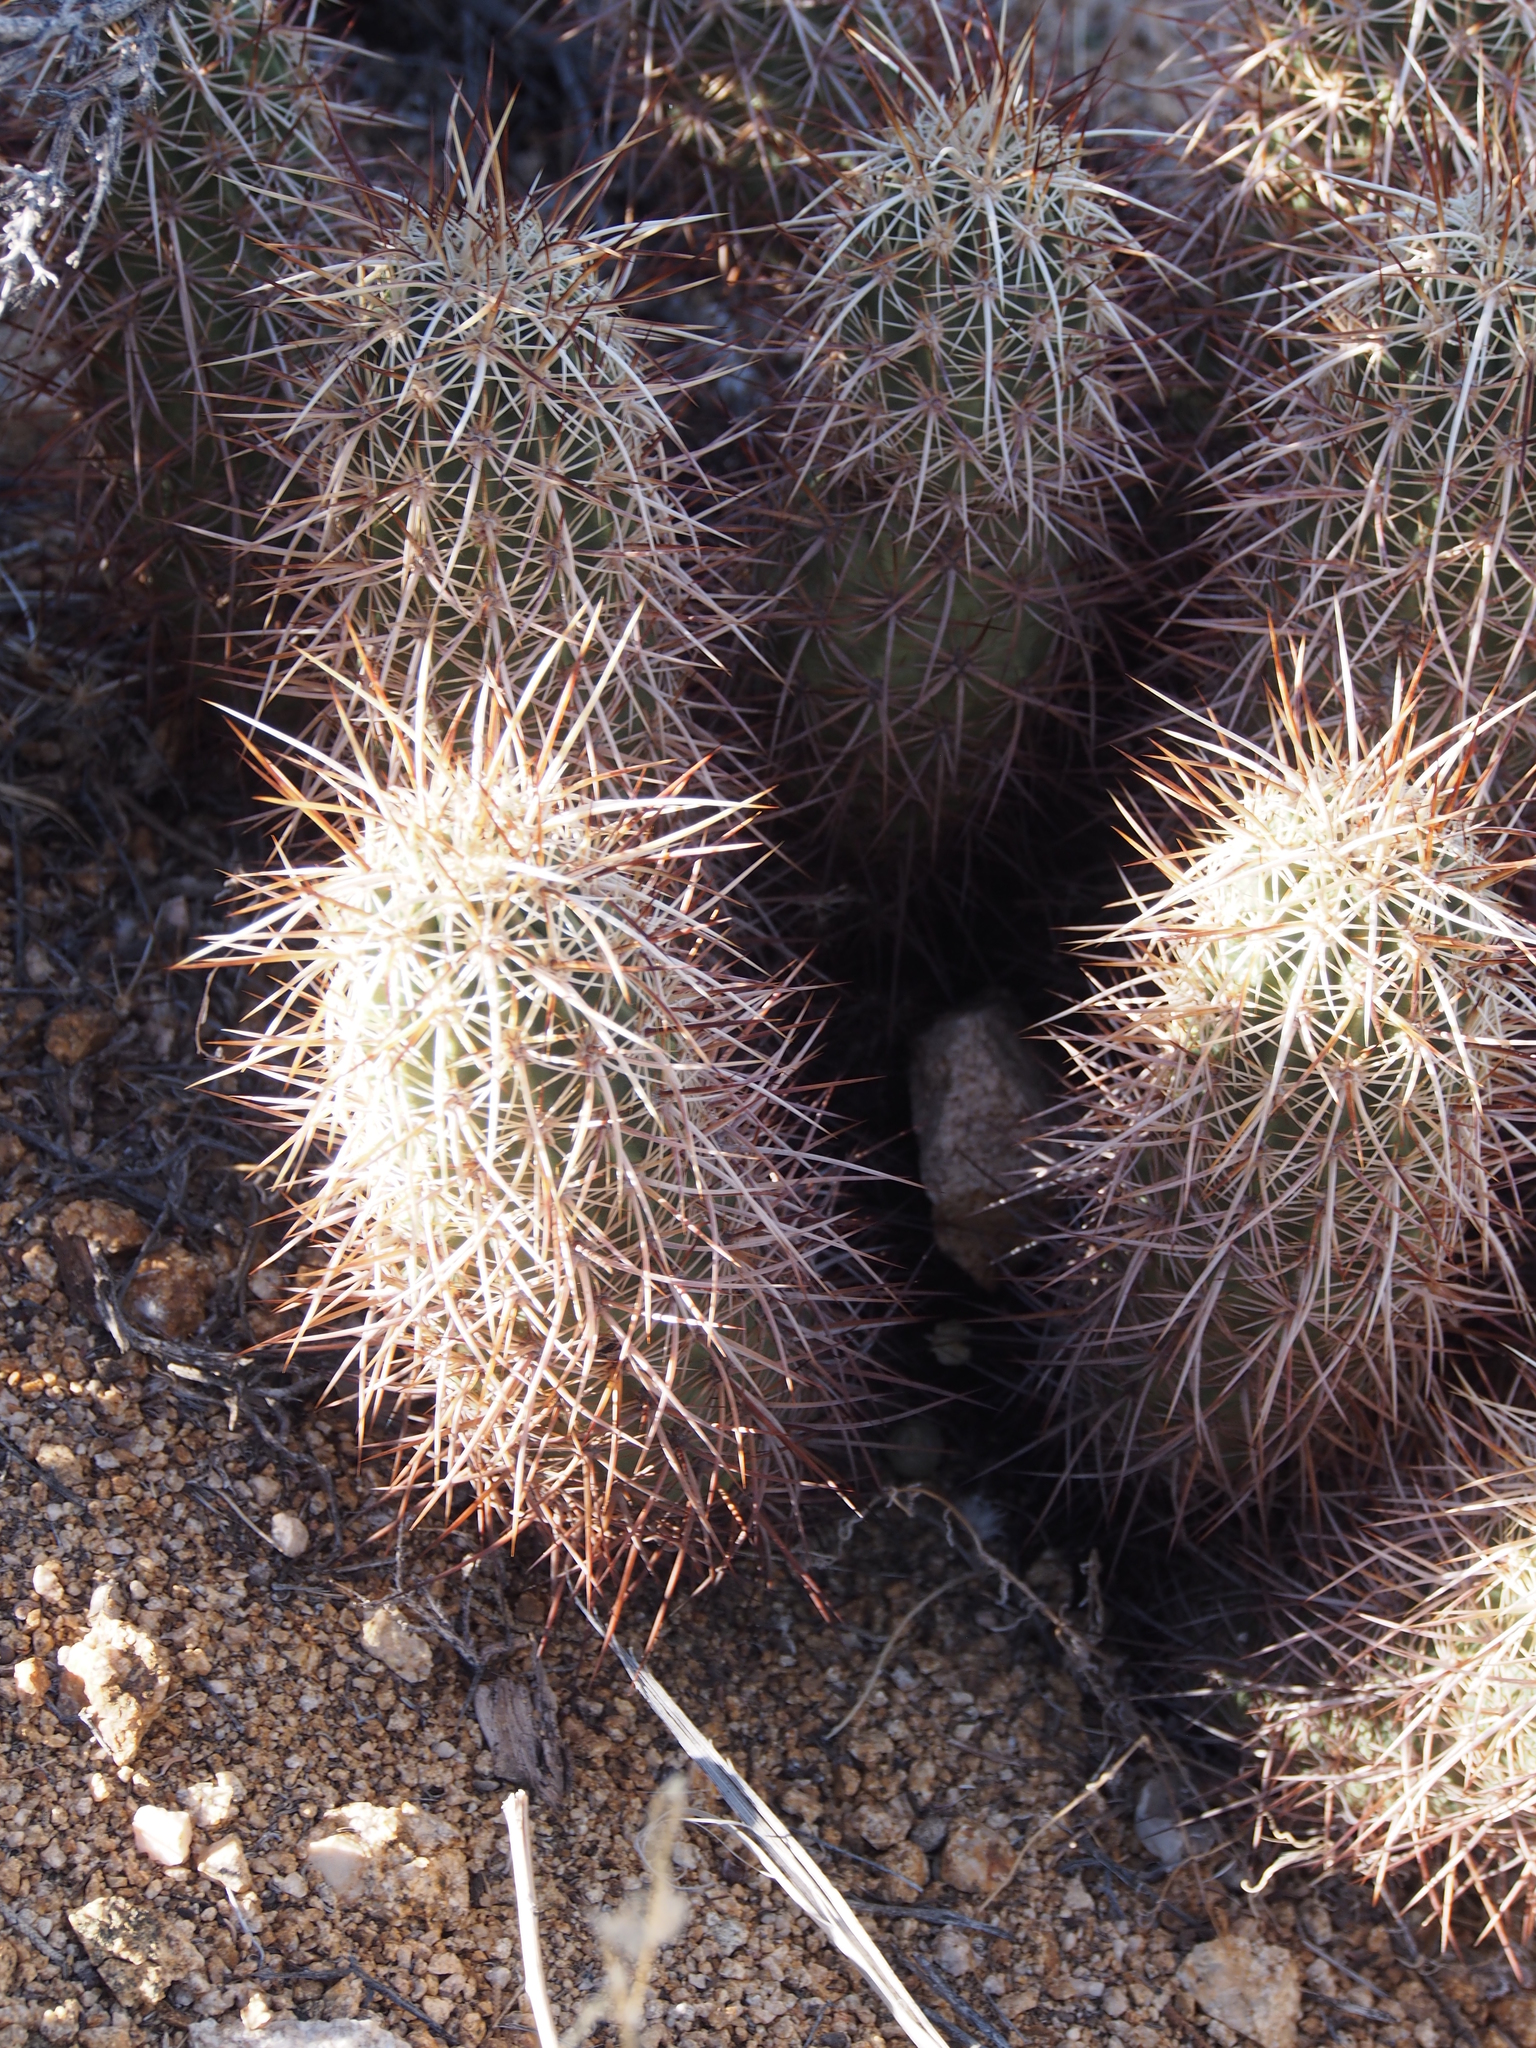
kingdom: Plantae
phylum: Tracheophyta
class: Magnoliopsida
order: Caryophyllales
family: Cactaceae
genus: Echinocereus
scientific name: Echinocereus engelmannii
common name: Engelmann's hedgehog cactus
